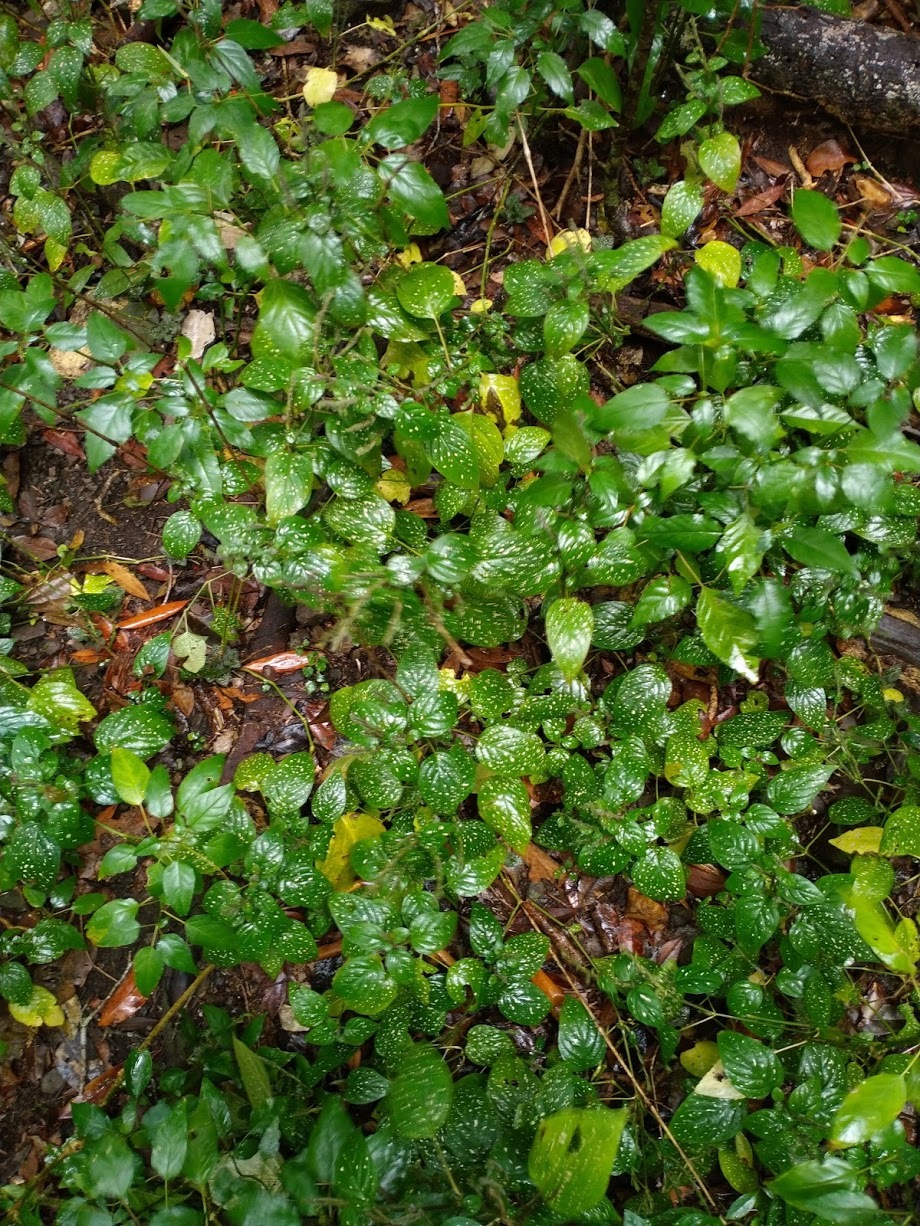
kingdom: Plantae
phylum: Tracheophyta
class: Magnoliopsida
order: Lamiales
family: Acanthaceae
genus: Hypoestes
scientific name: Hypoestes phyllostachya
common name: Polkadot-plant
